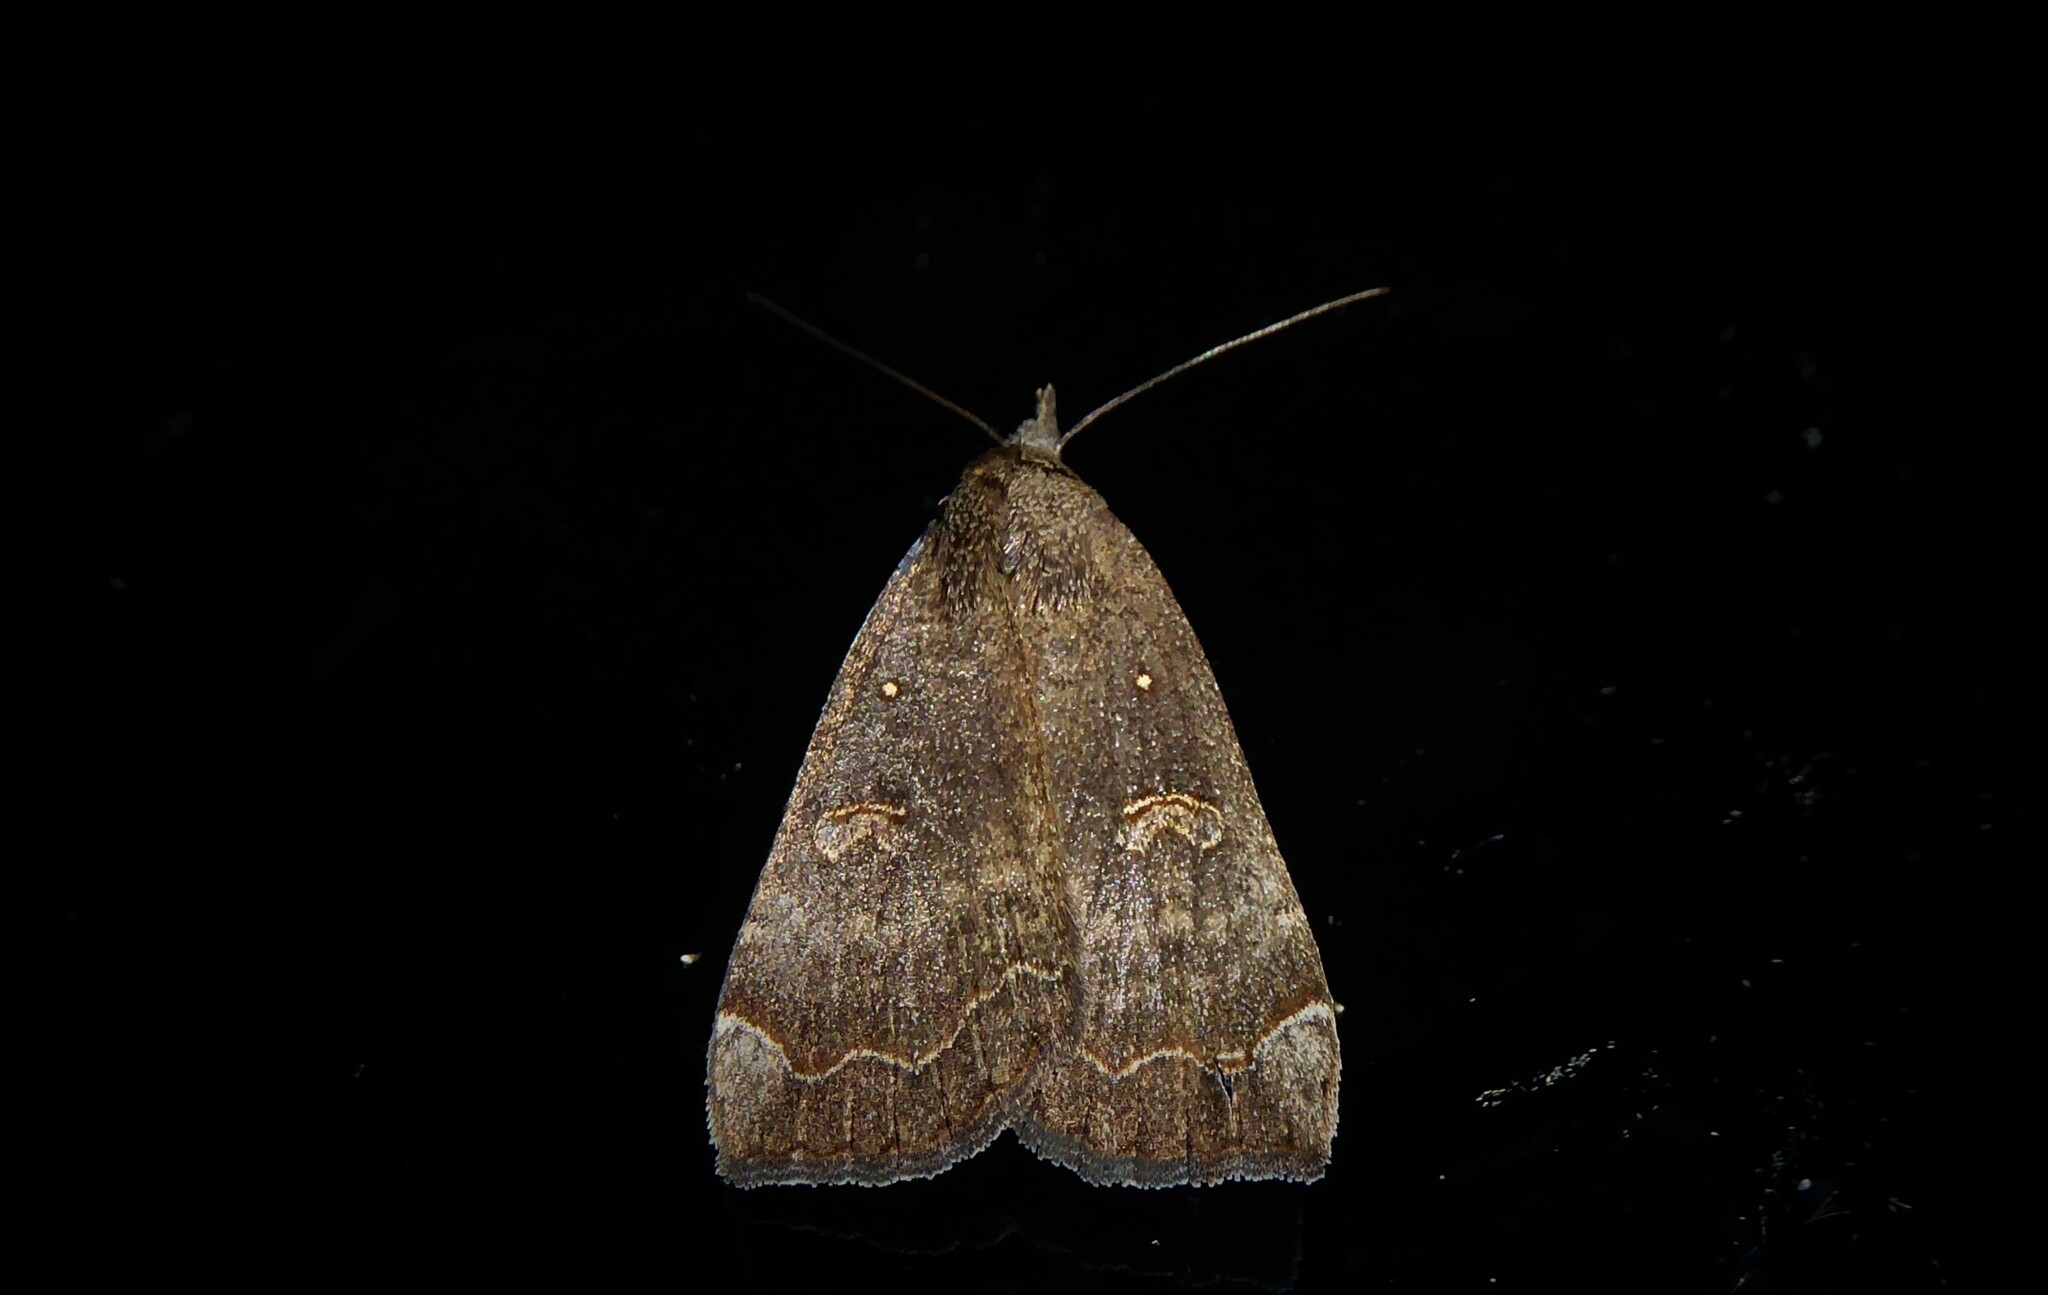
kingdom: Animalia
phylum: Arthropoda
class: Insecta
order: Lepidoptera
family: Erebidae
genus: Rhapsa
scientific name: Rhapsa scotosialis
